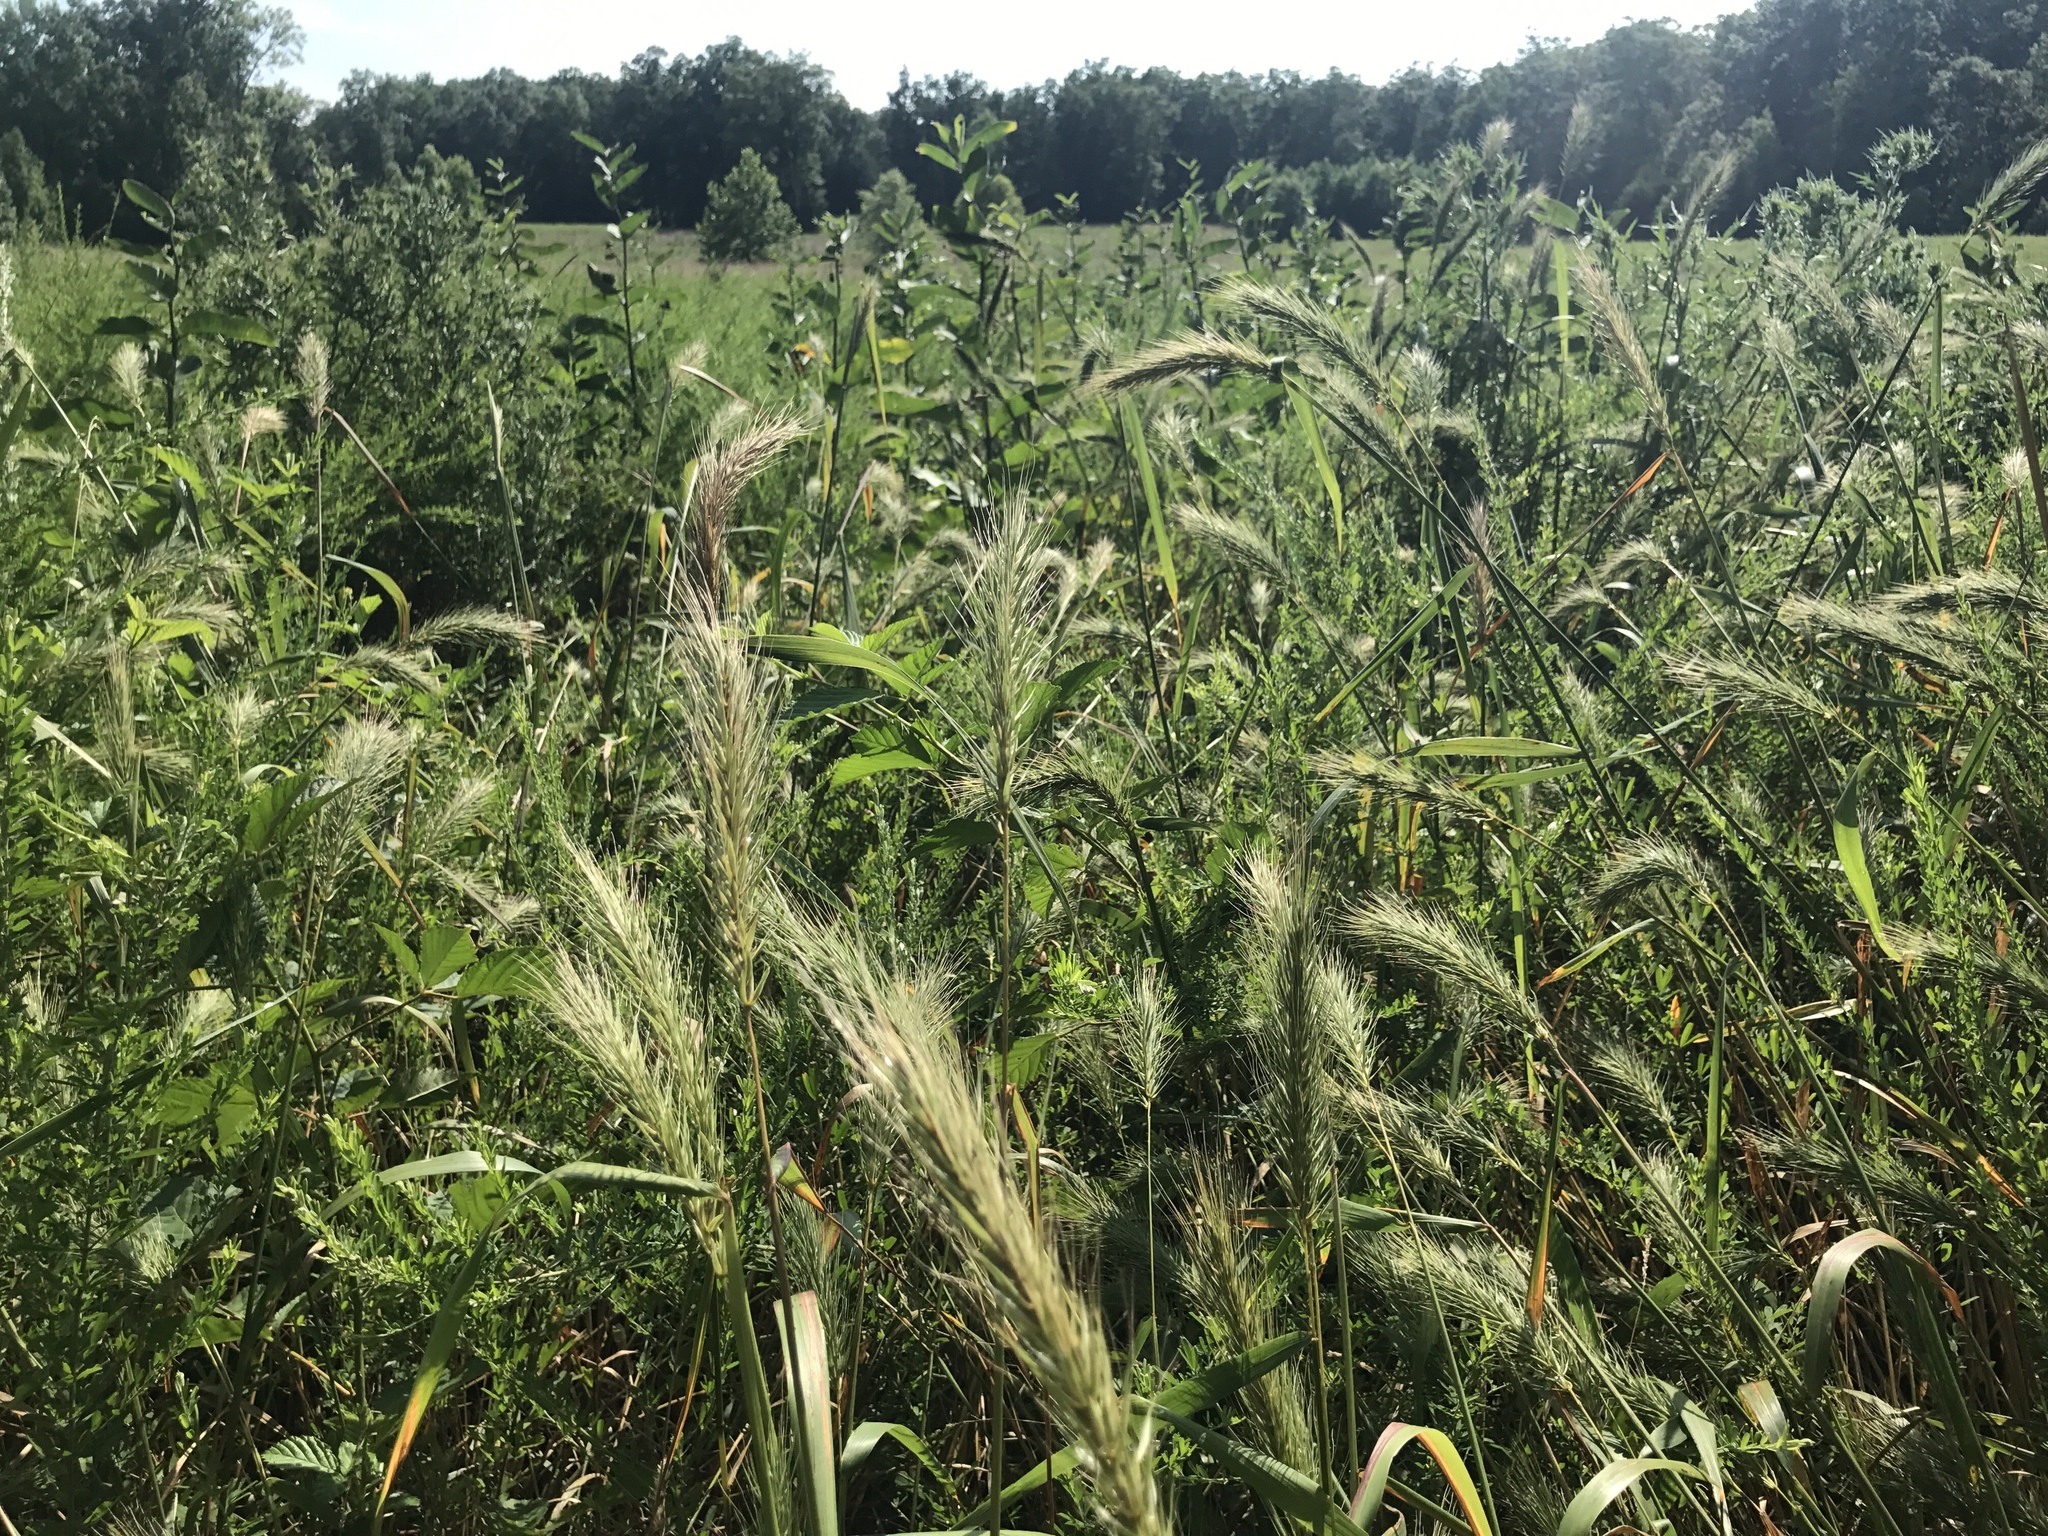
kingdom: Plantae
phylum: Tracheophyta
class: Liliopsida
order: Poales
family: Poaceae
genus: Elymus
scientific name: Elymus virginicus
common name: Common eastern wildrye
